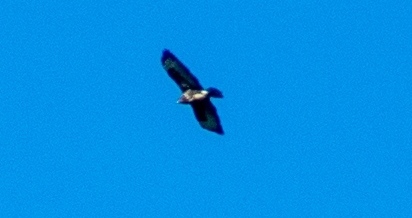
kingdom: Animalia
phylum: Chordata
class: Aves
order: Accipitriformes
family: Accipitridae
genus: Buteo
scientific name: Buteo buteo
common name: Common buzzard
